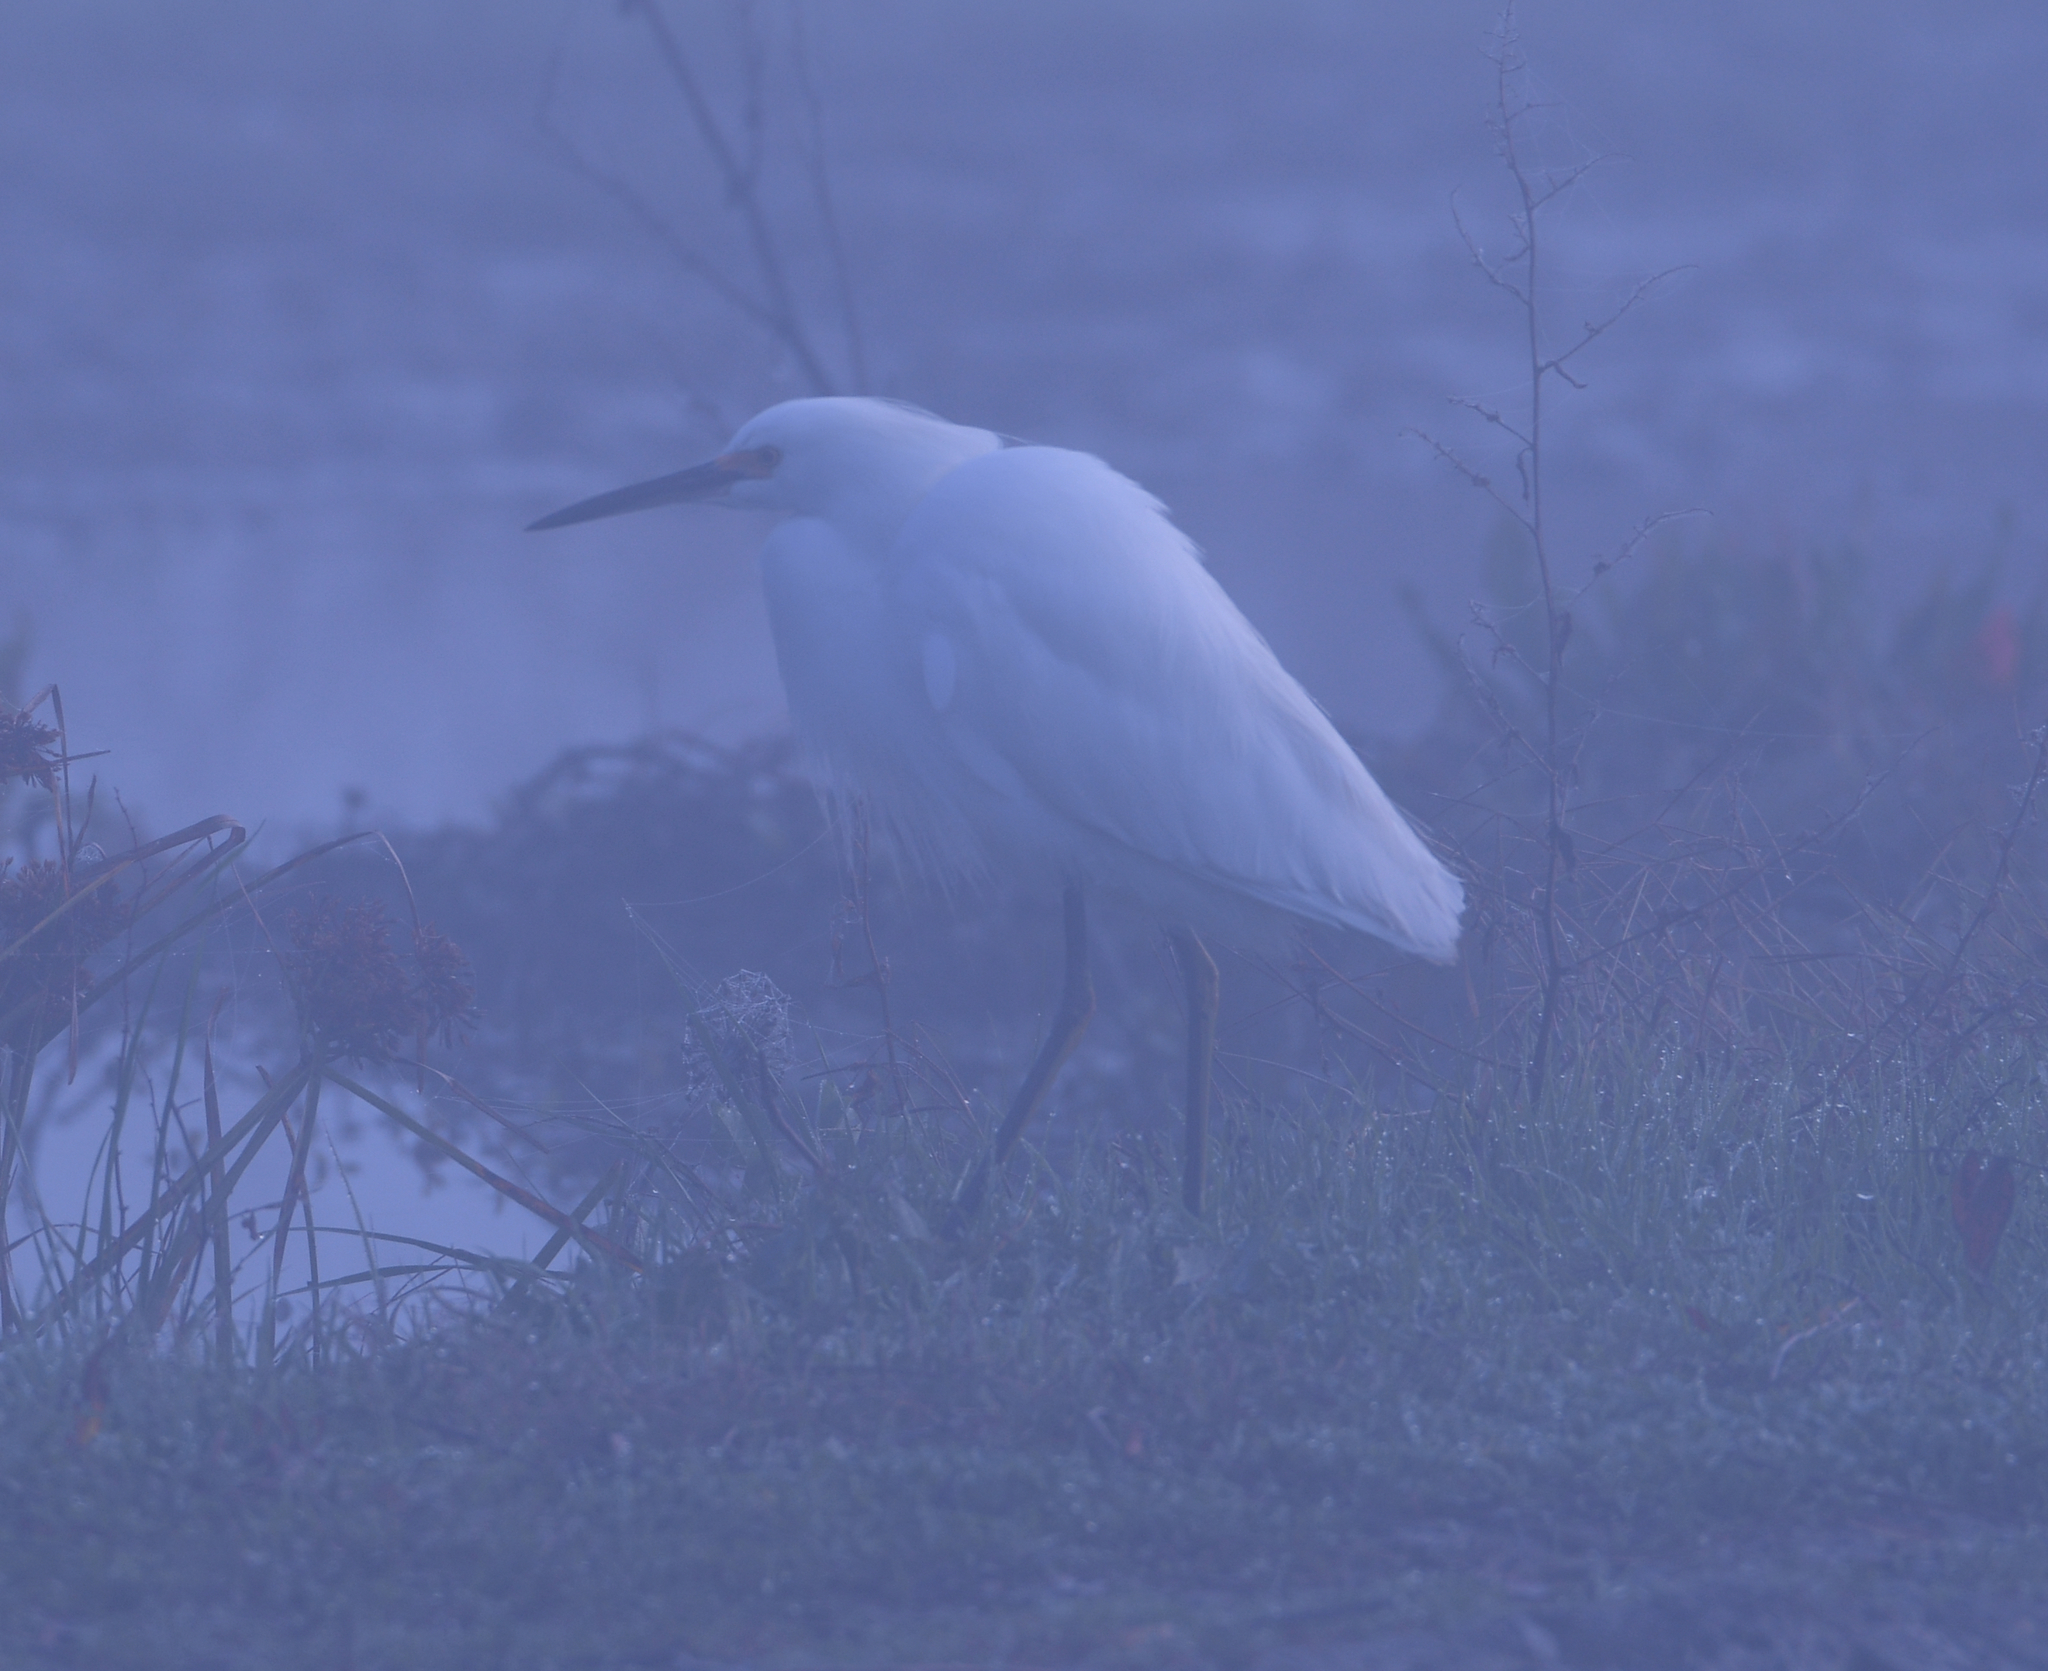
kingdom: Animalia
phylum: Chordata
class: Aves
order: Pelecaniformes
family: Ardeidae
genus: Egretta
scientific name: Egretta thula
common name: Snowy egret
